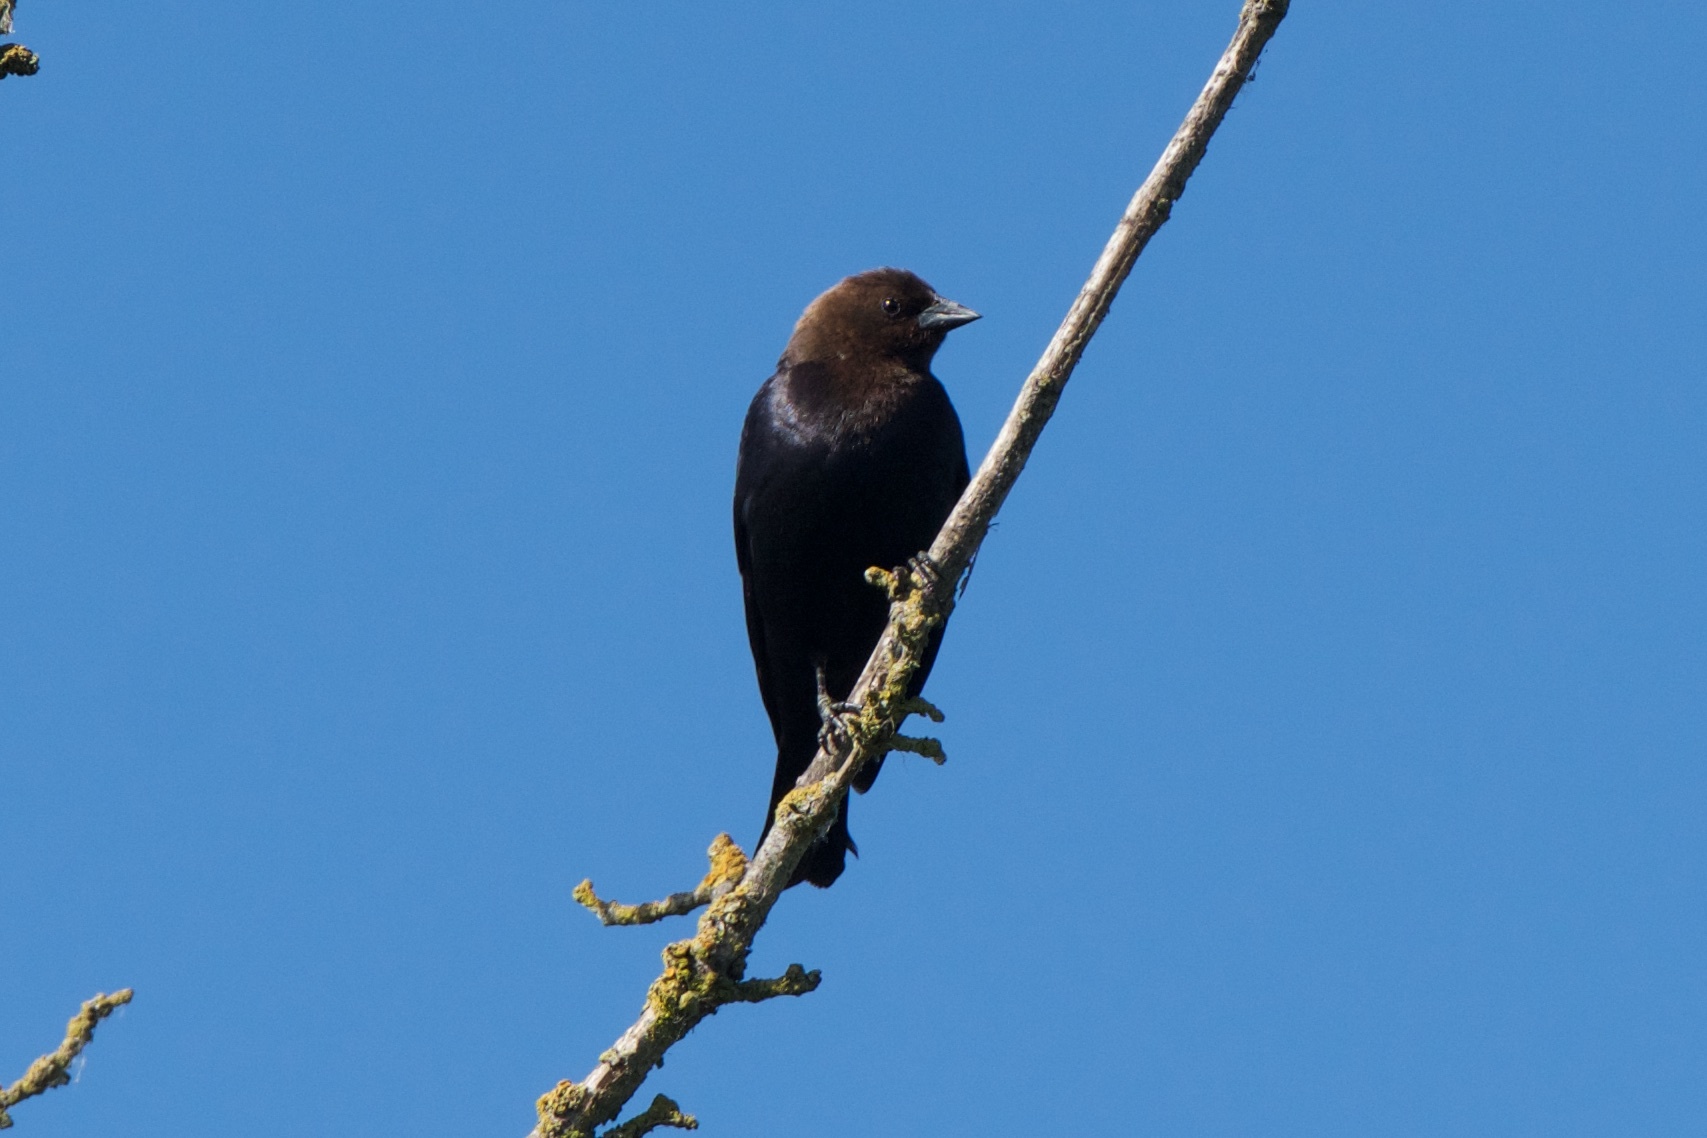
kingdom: Animalia
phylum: Chordata
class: Aves
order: Passeriformes
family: Icteridae
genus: Molothrus
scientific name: Molothrus ater
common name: Brown-headed cowbird
